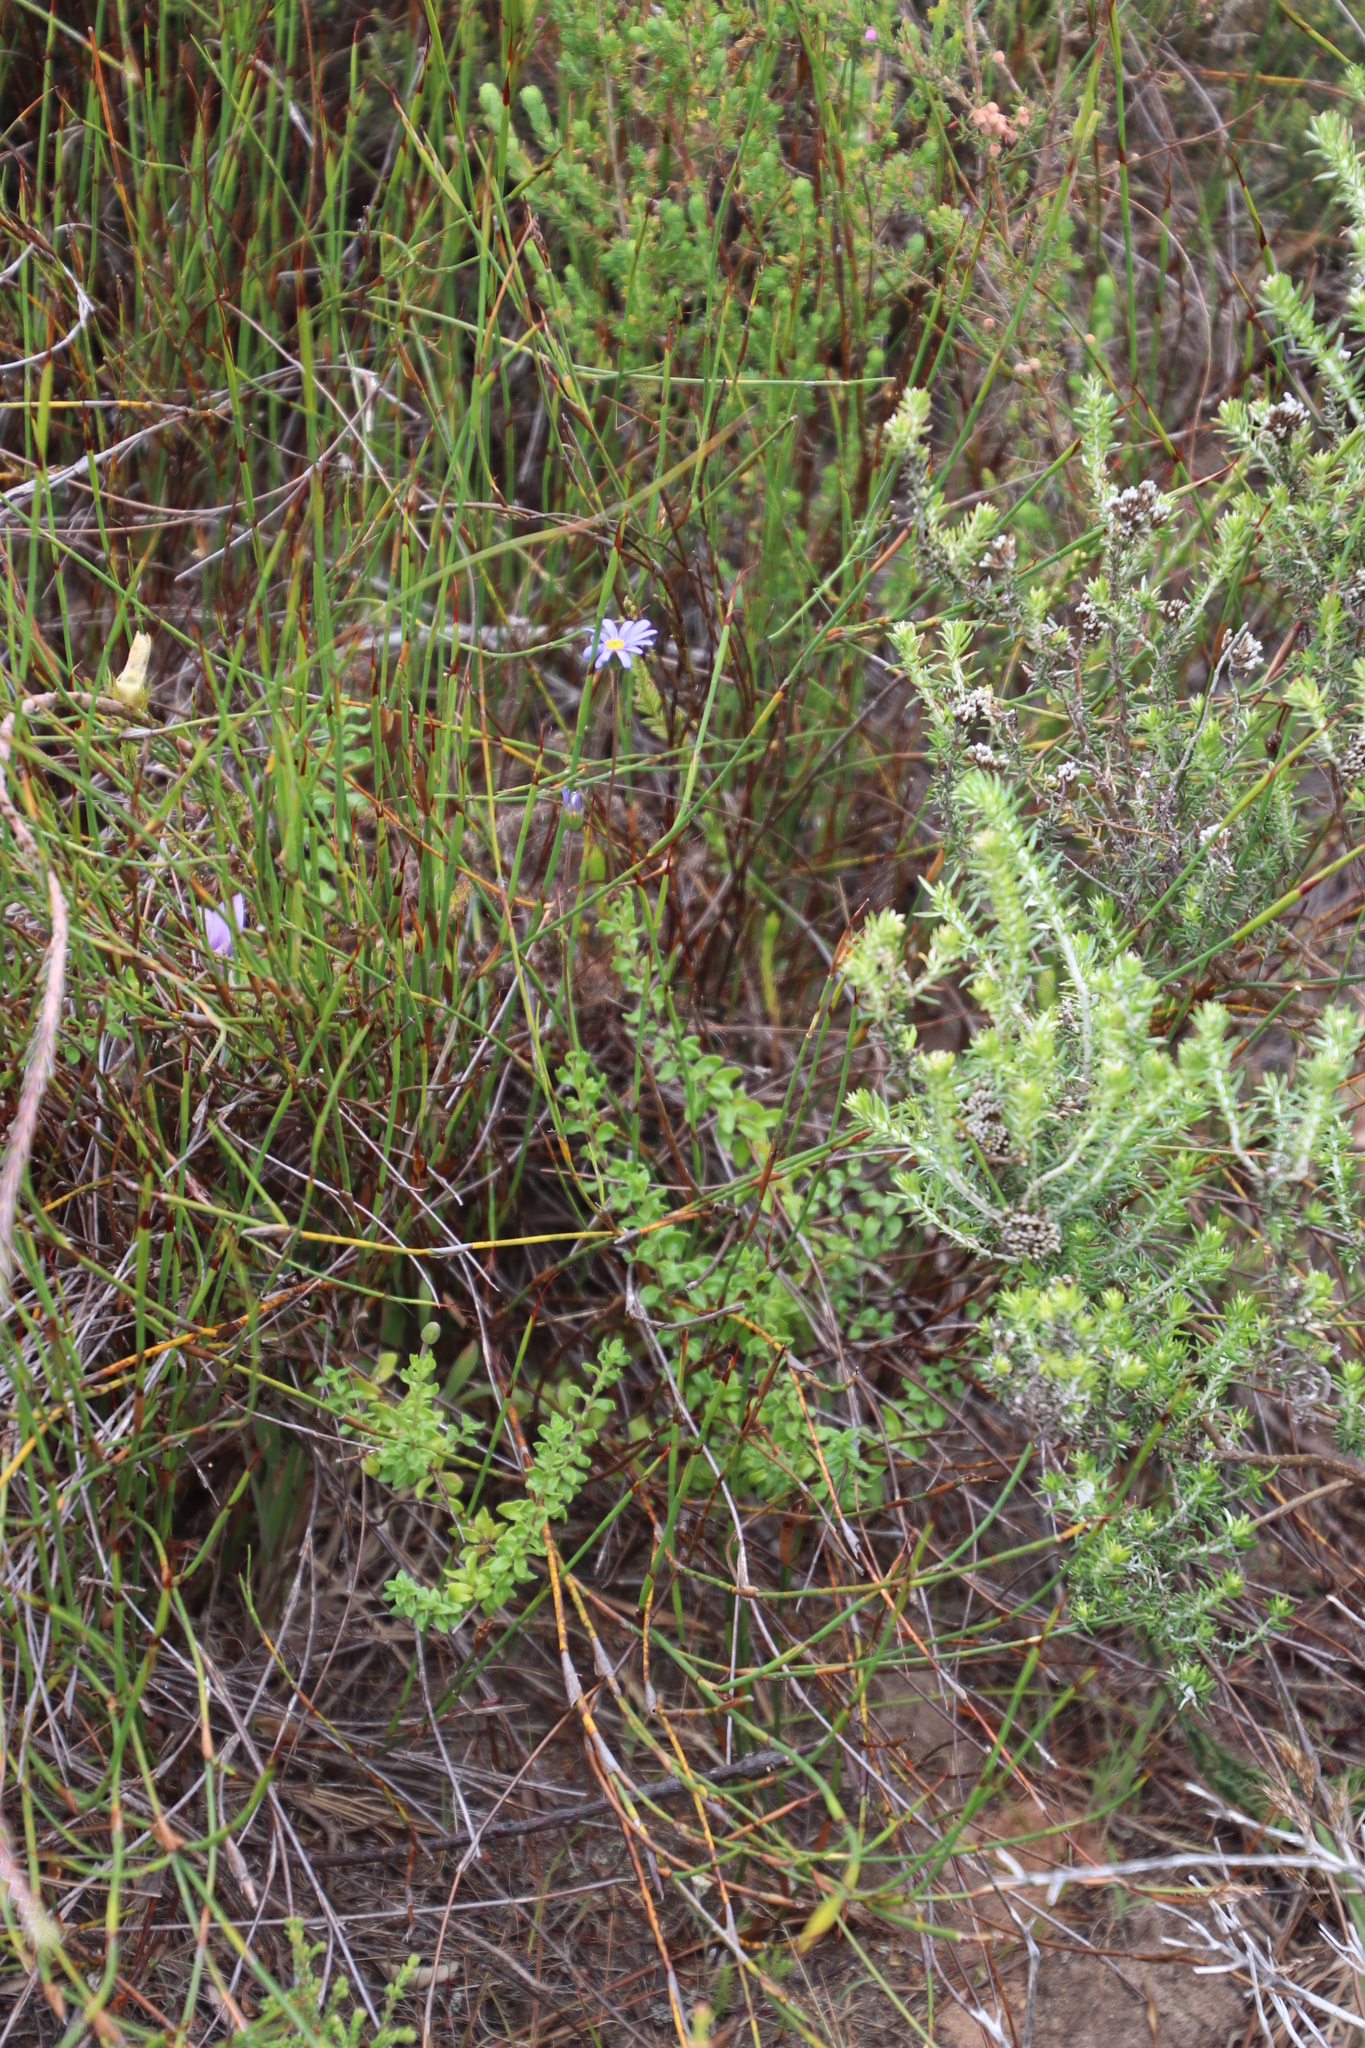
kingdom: Plantae
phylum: Tracheophyta
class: Magnoliopsida
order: Asterales
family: Asteraceae
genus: Felicia
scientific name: Felicia aethiopica
